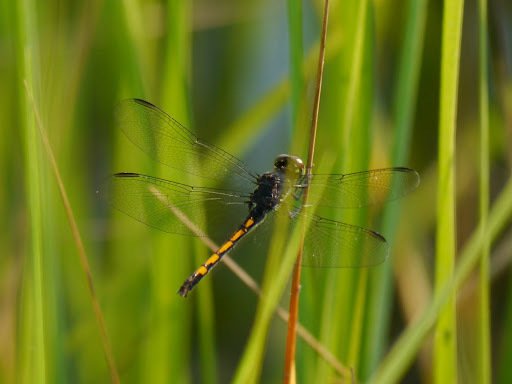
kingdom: Animalia
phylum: Arthropoda
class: Insecta
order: Odonata
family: Libellulidae
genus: Erythrodiplax
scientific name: Erythrodiplax berenice
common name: Seaside dragonlet
